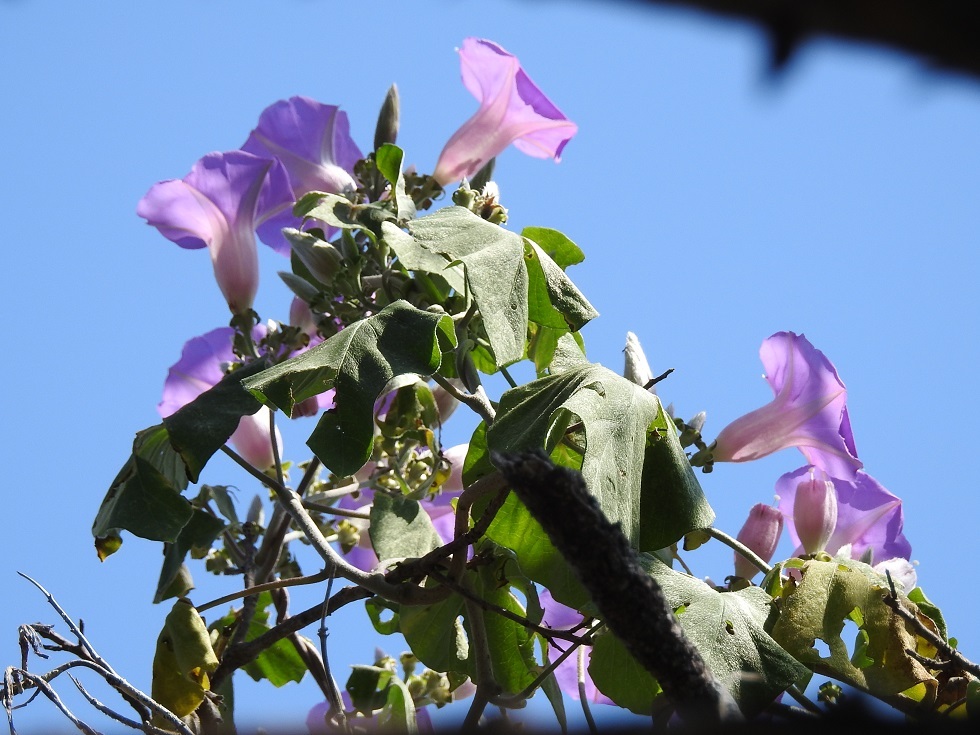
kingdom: Plantae
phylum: Tracheophyta
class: Magnoliopsida
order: Solanales
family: Convolvulaceae
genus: Ipomoea
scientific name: Ipomoea leucotricha
